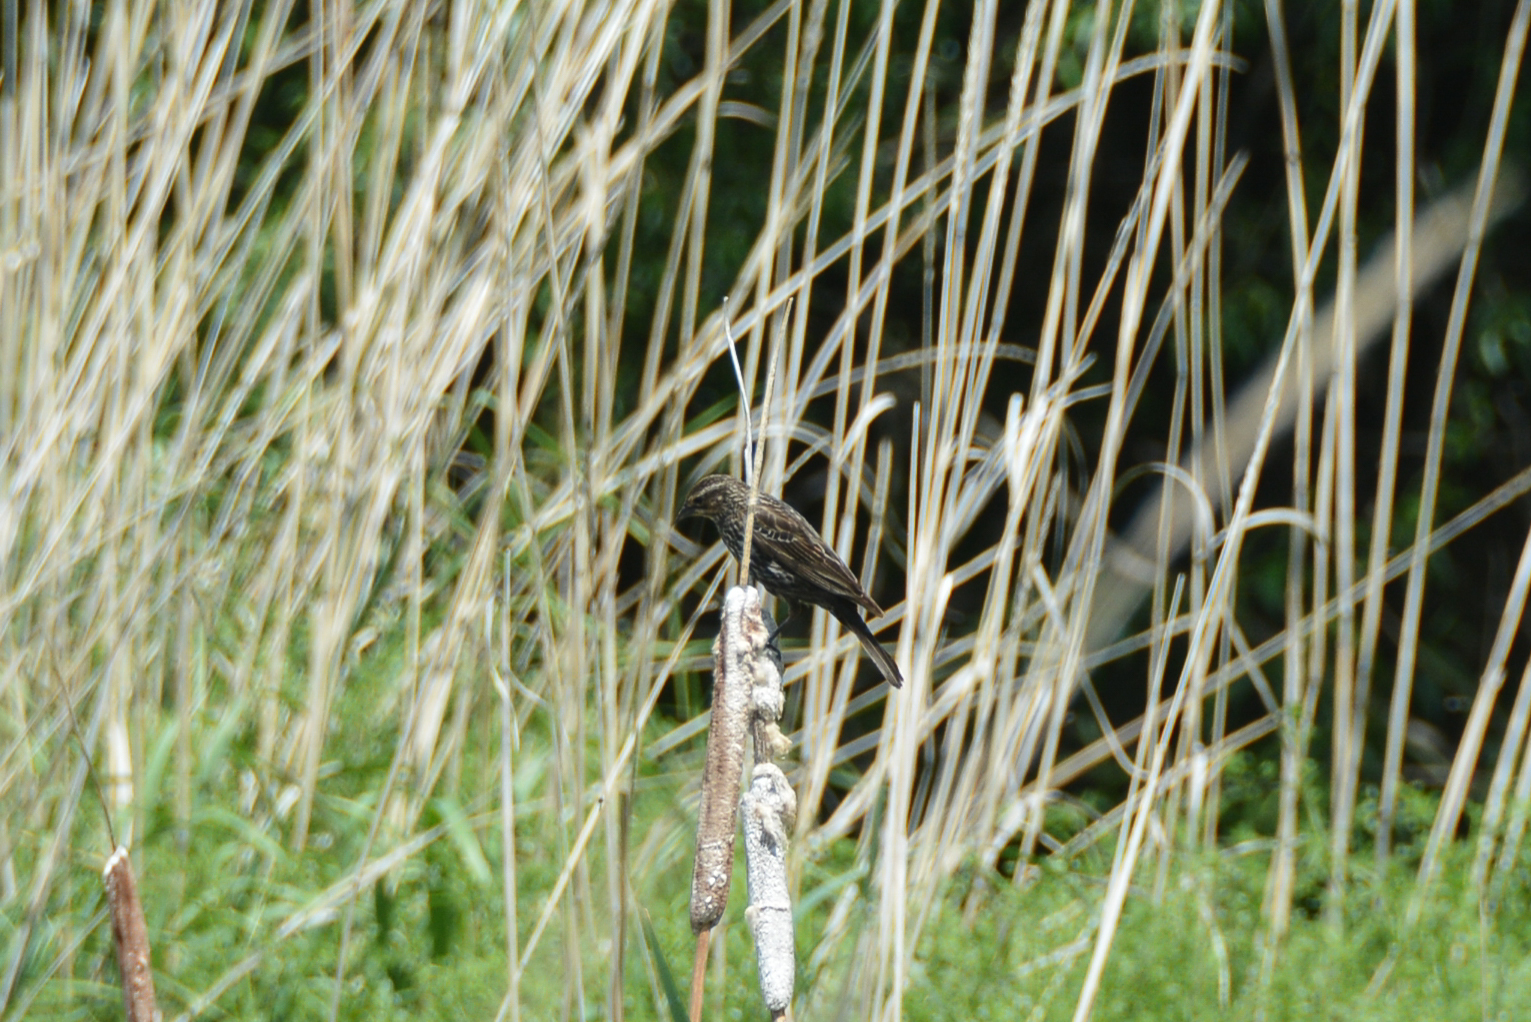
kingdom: Animalia
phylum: Chordata
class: Aves
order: Passeriformes
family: Icteridae
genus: Agelaius
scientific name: Agelaius phoeniceus
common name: Red-winged blackbird
